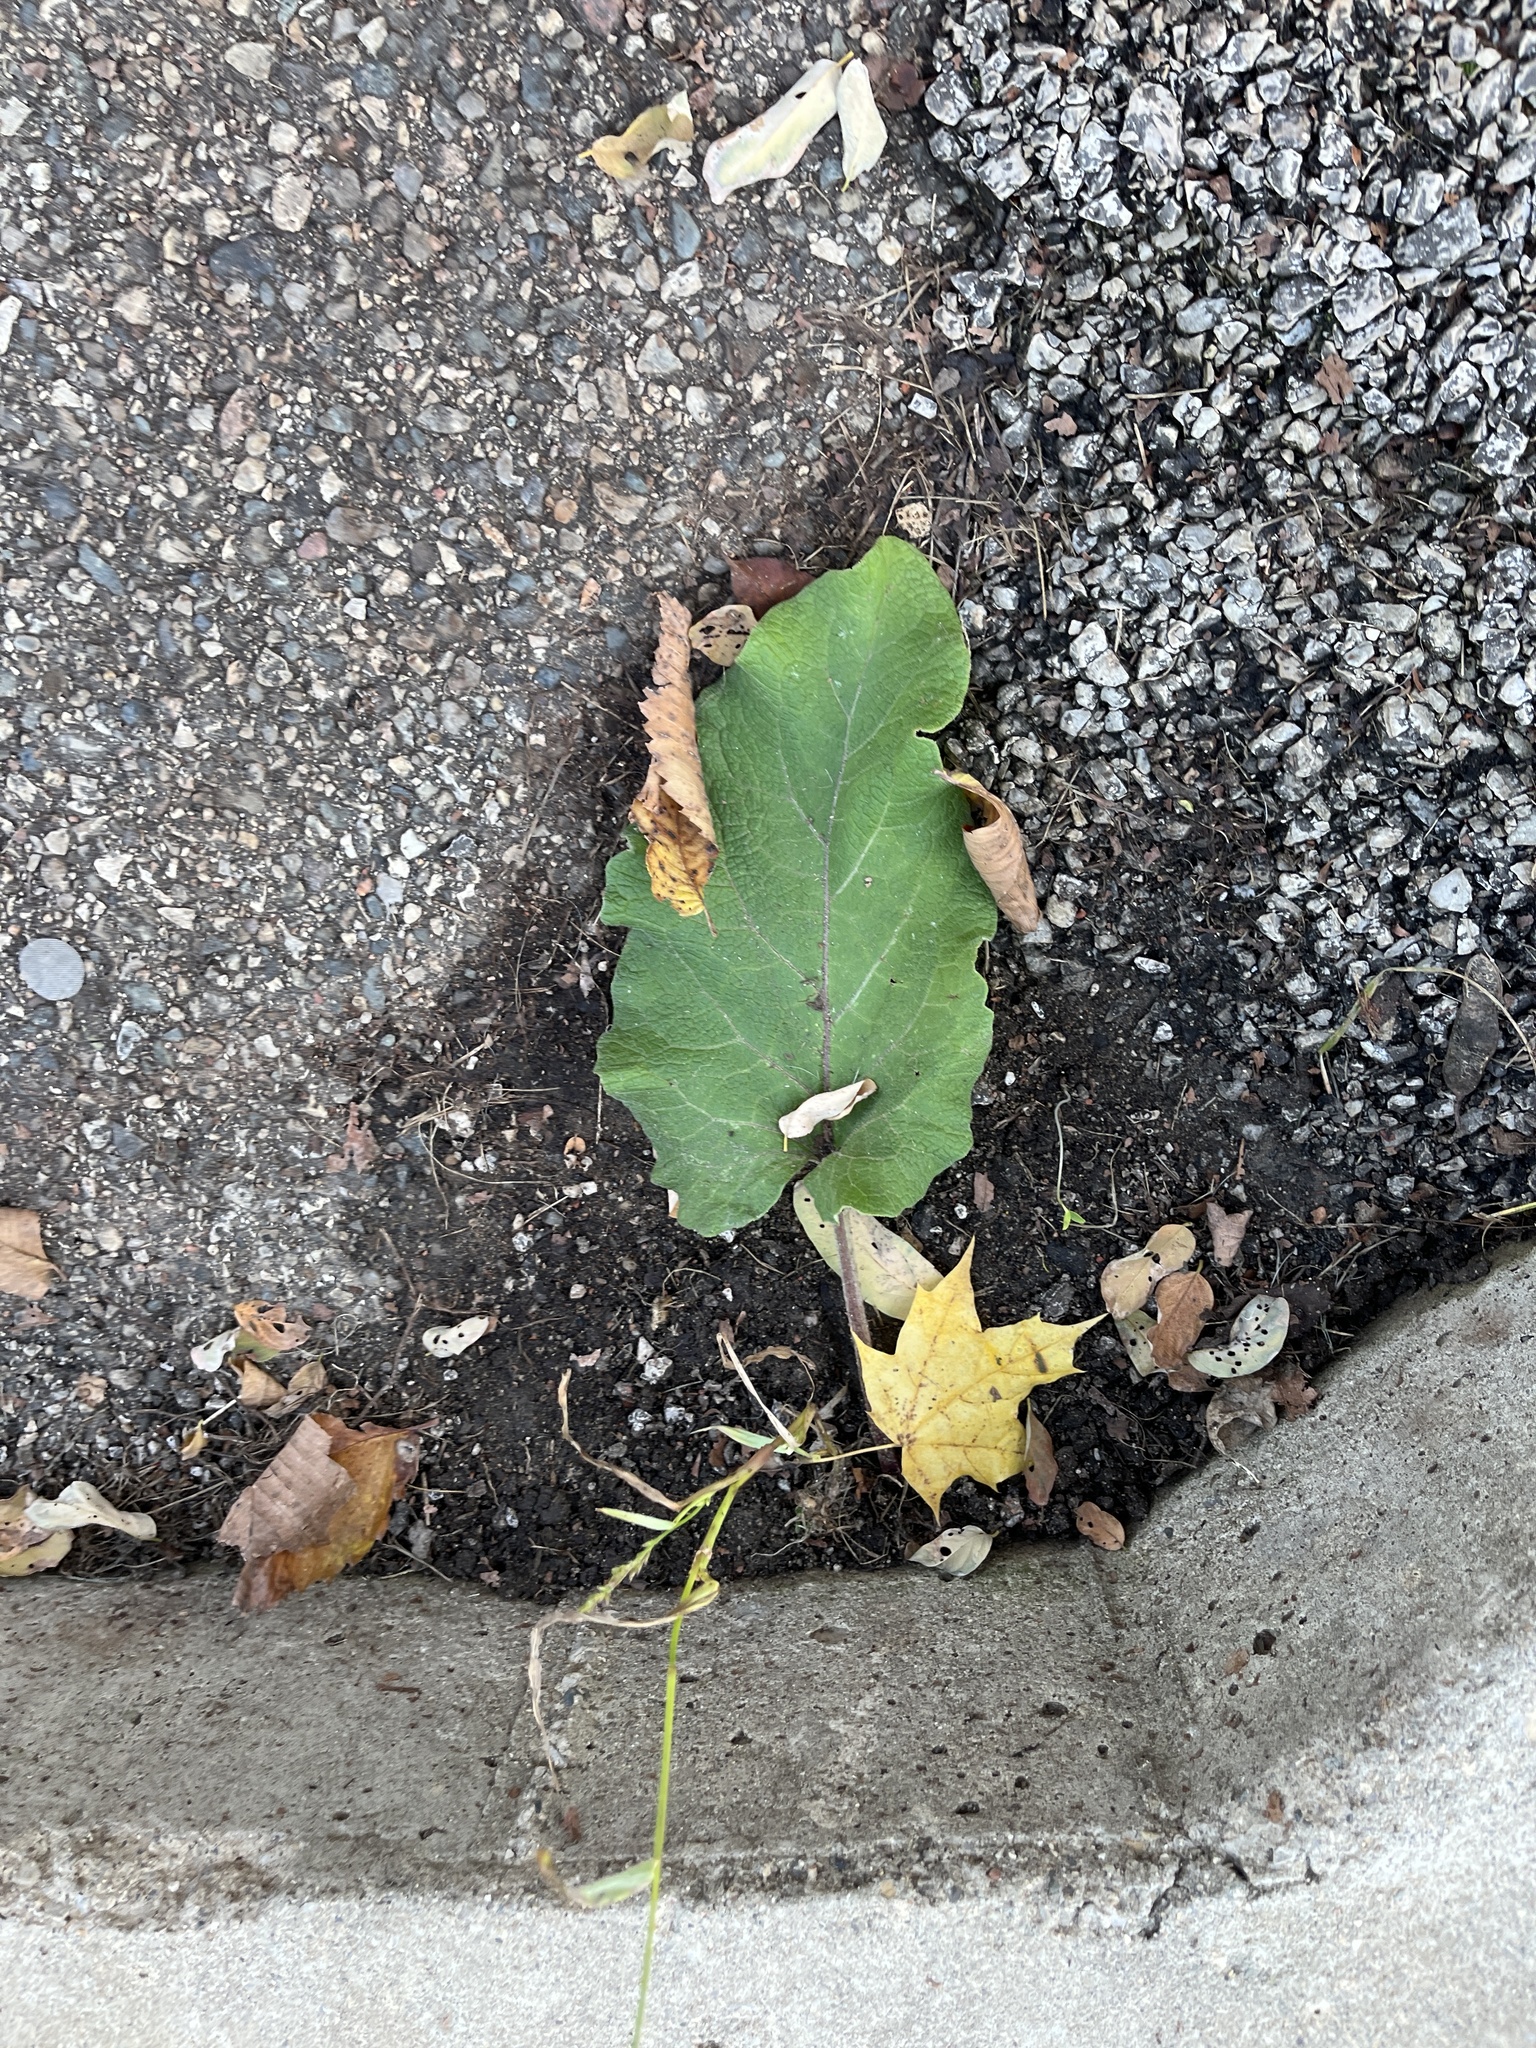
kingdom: Plantae
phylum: Tracheophyta
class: Magnoliopsida
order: Asterales
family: Asteraceae
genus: Arctium
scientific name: Arctium
